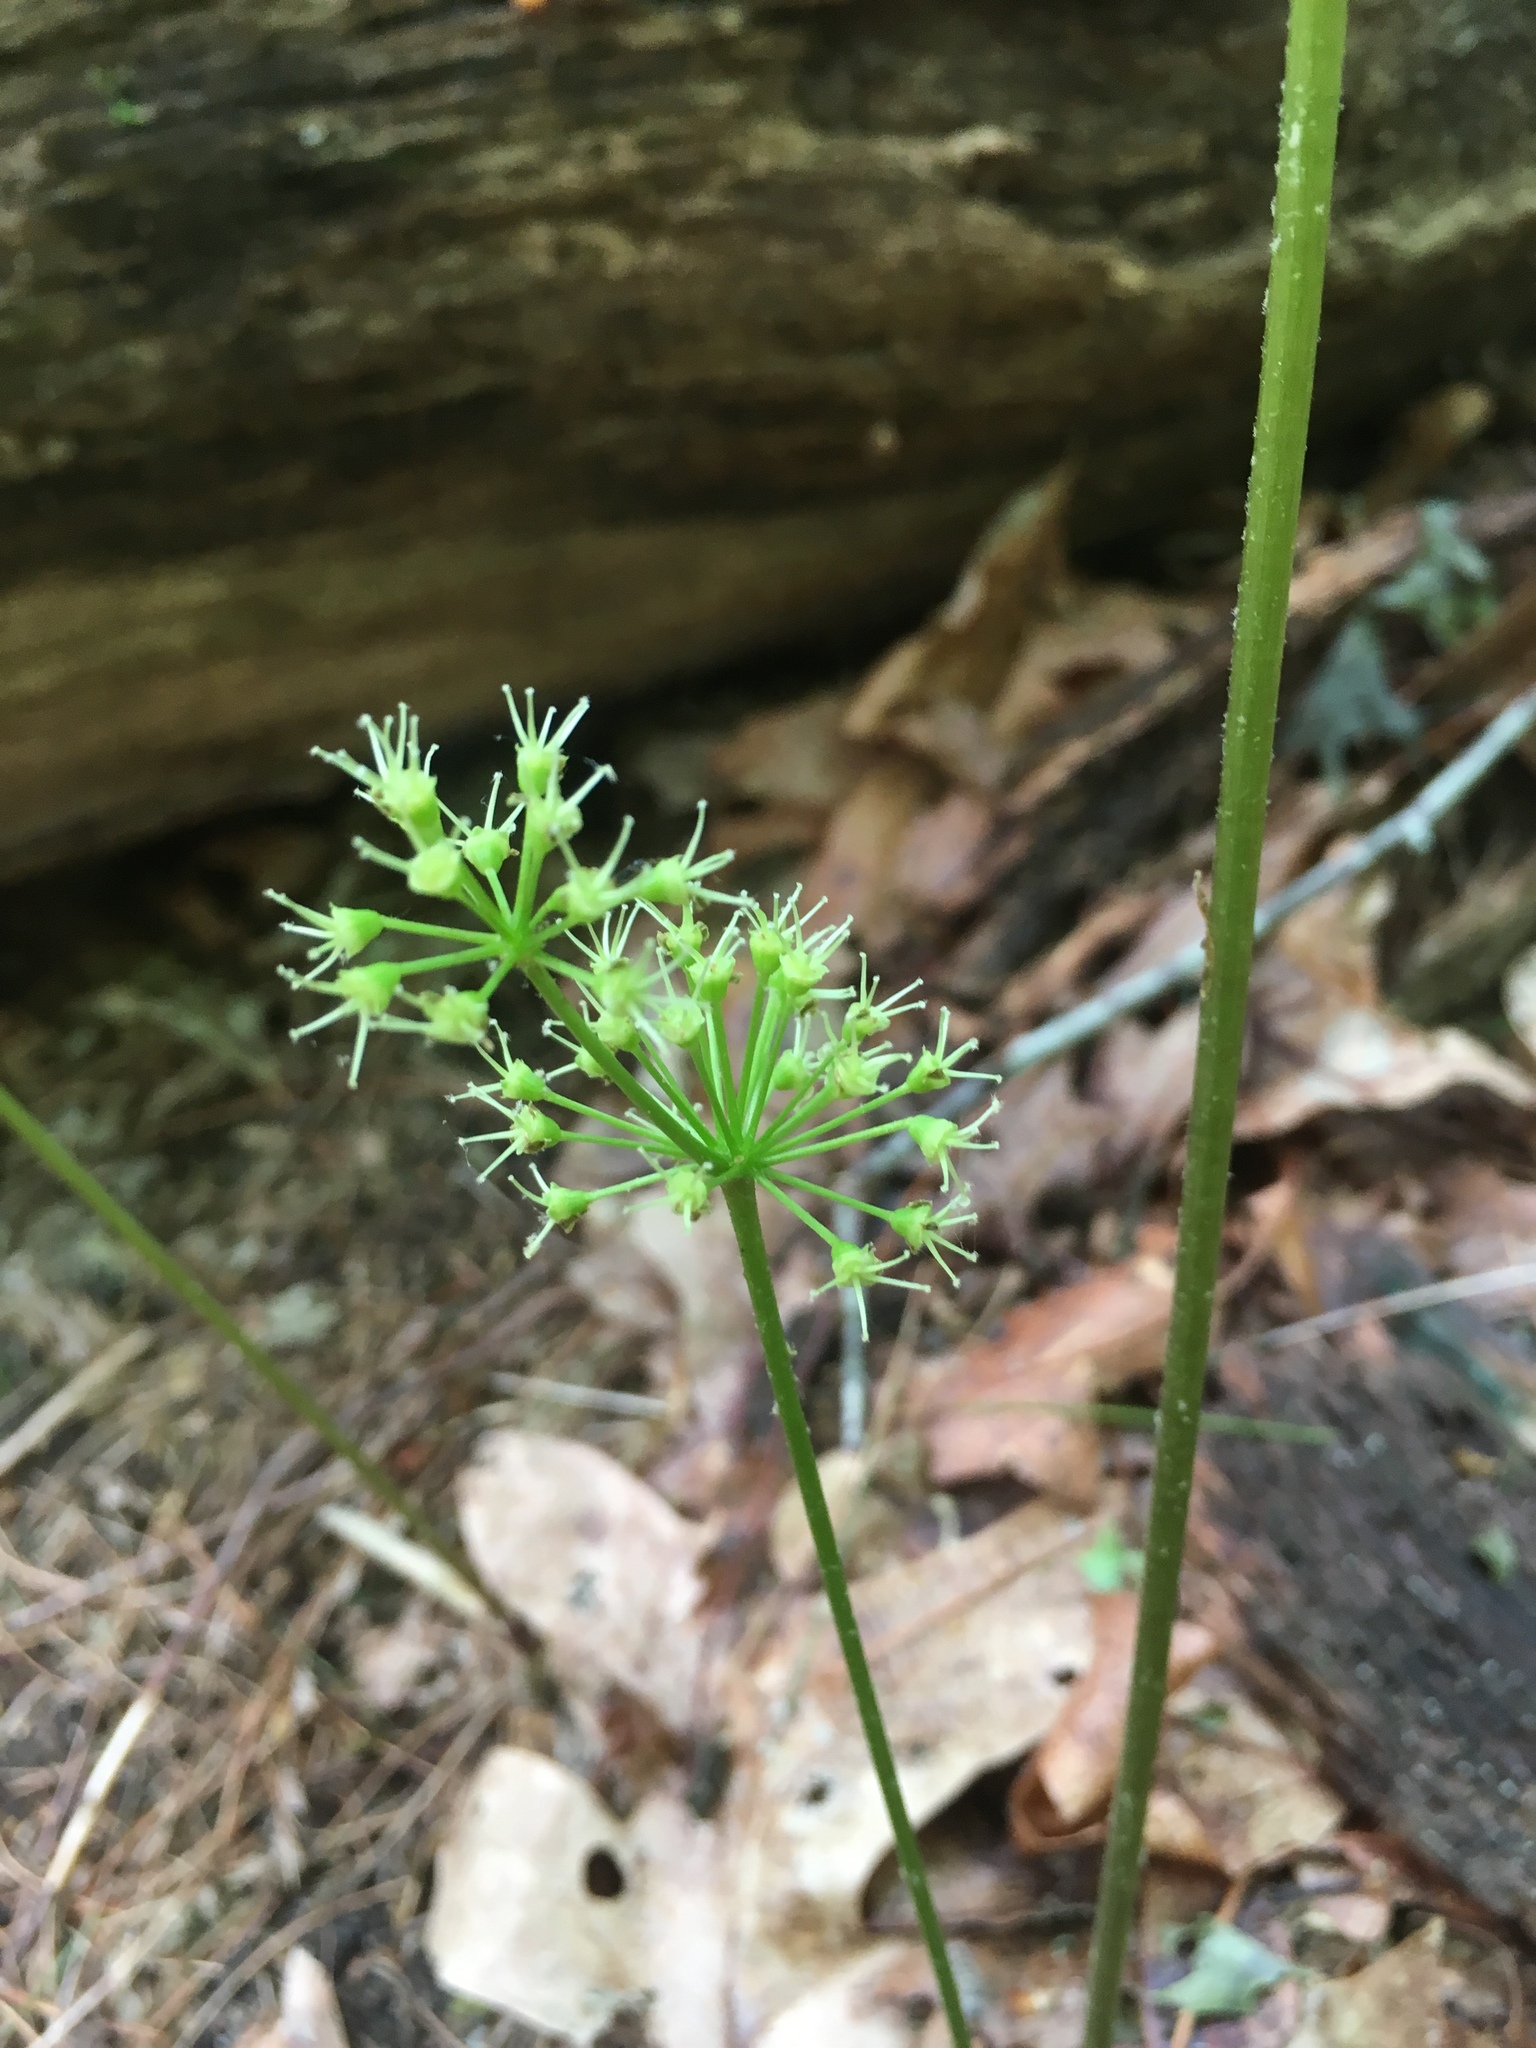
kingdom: Plantae
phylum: Tracheophyta
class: Magnoliopsida
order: Apiales
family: Araliaceae
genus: Aralia
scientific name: Aralia nudicaulis
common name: Wild sarsaparilla
